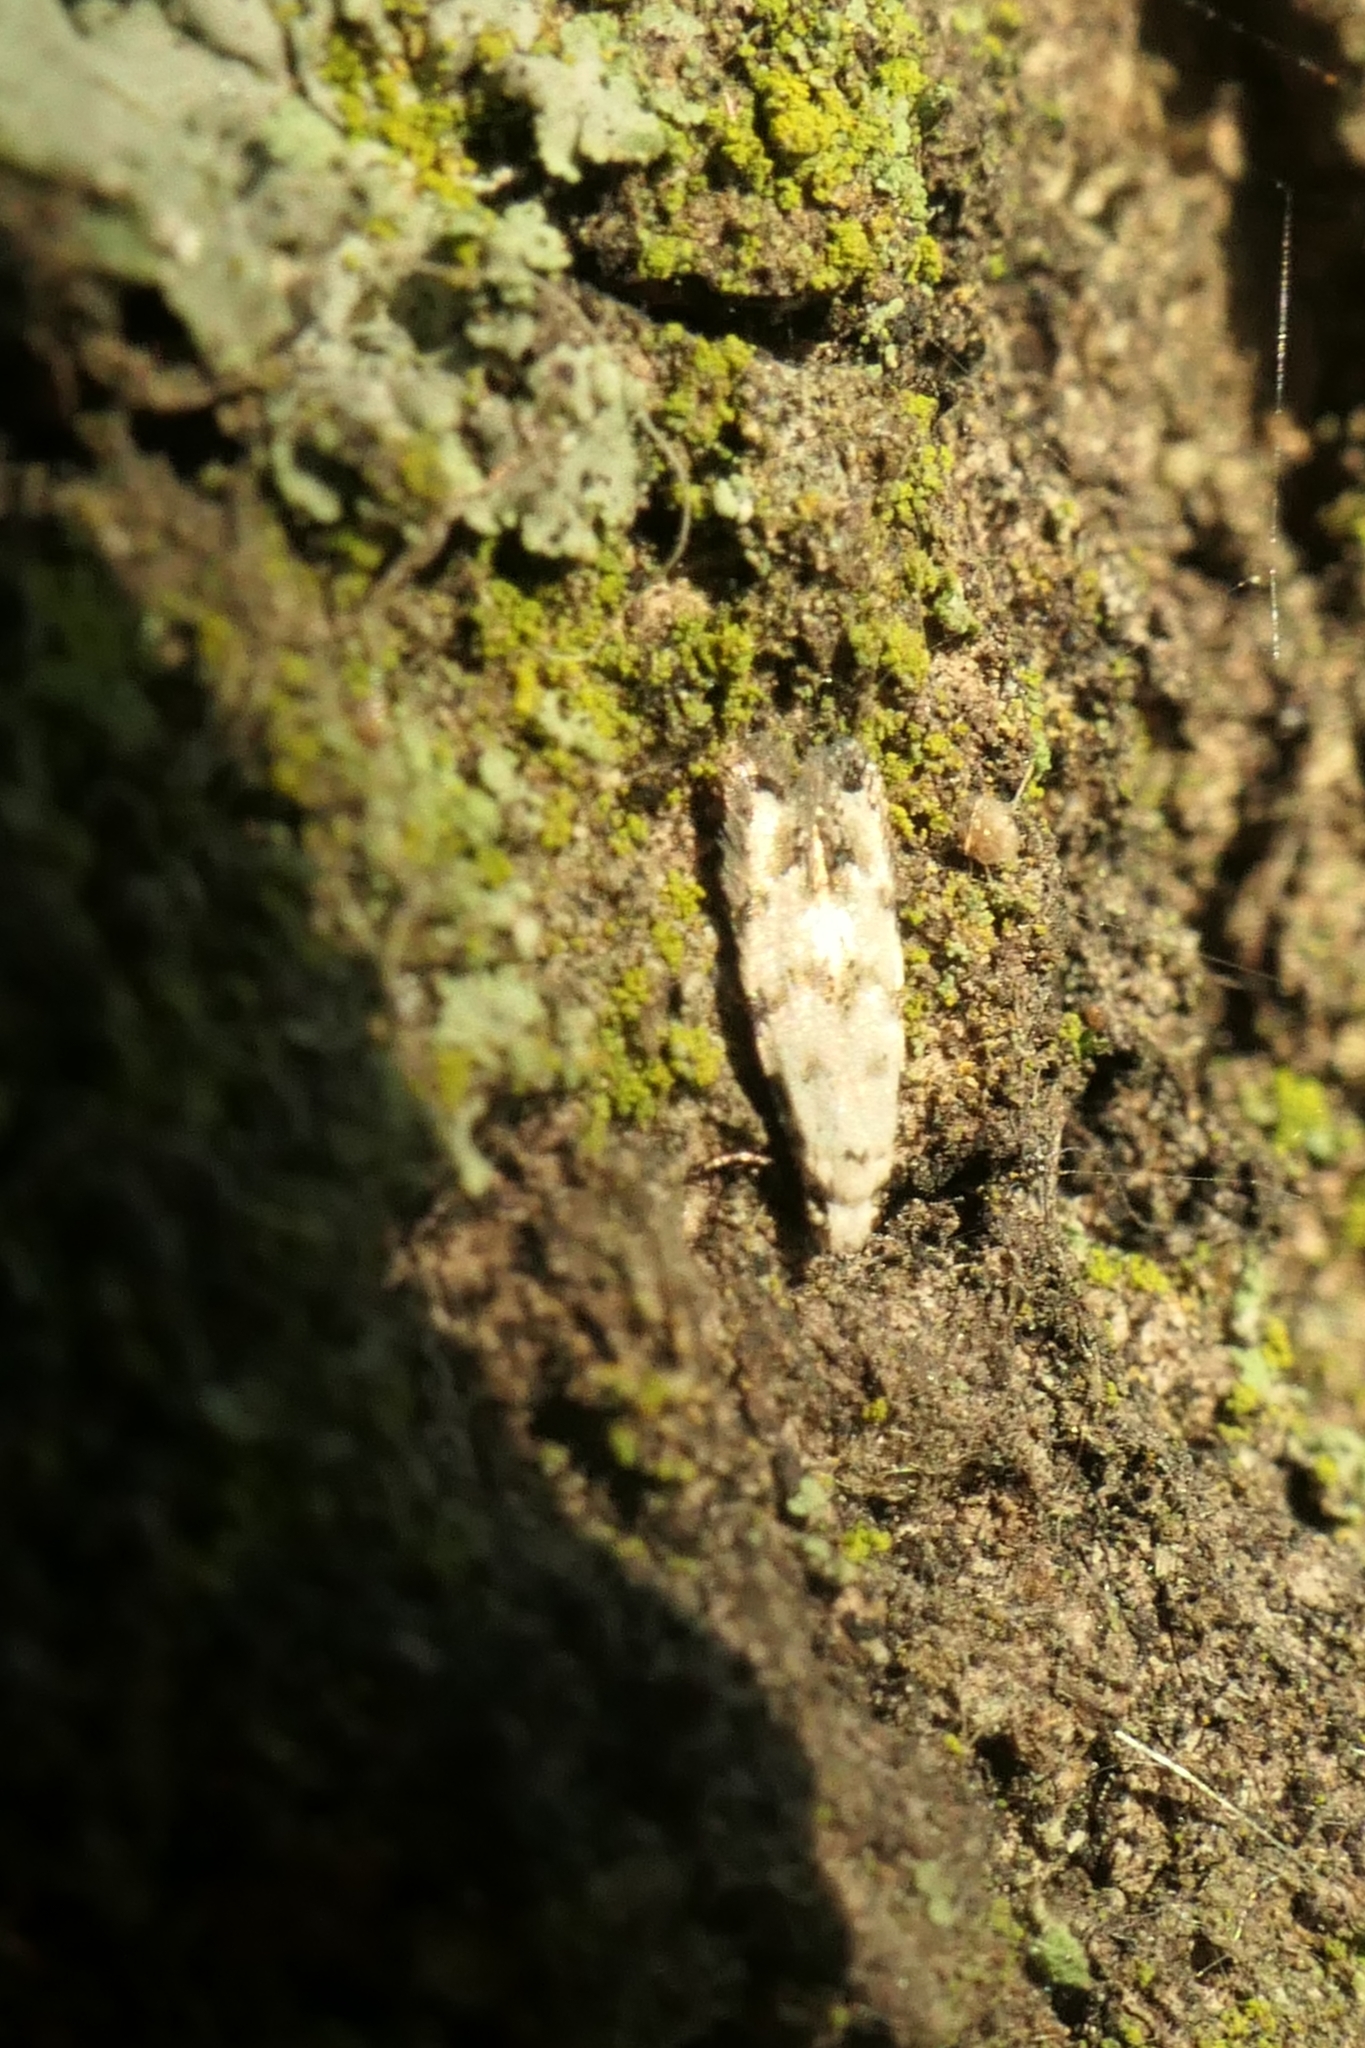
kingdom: Animalia
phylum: Arthropoda
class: Insecta
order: Lepidoptera
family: Tineidae
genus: Crypsitricha
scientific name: Crypsitricha stereota
